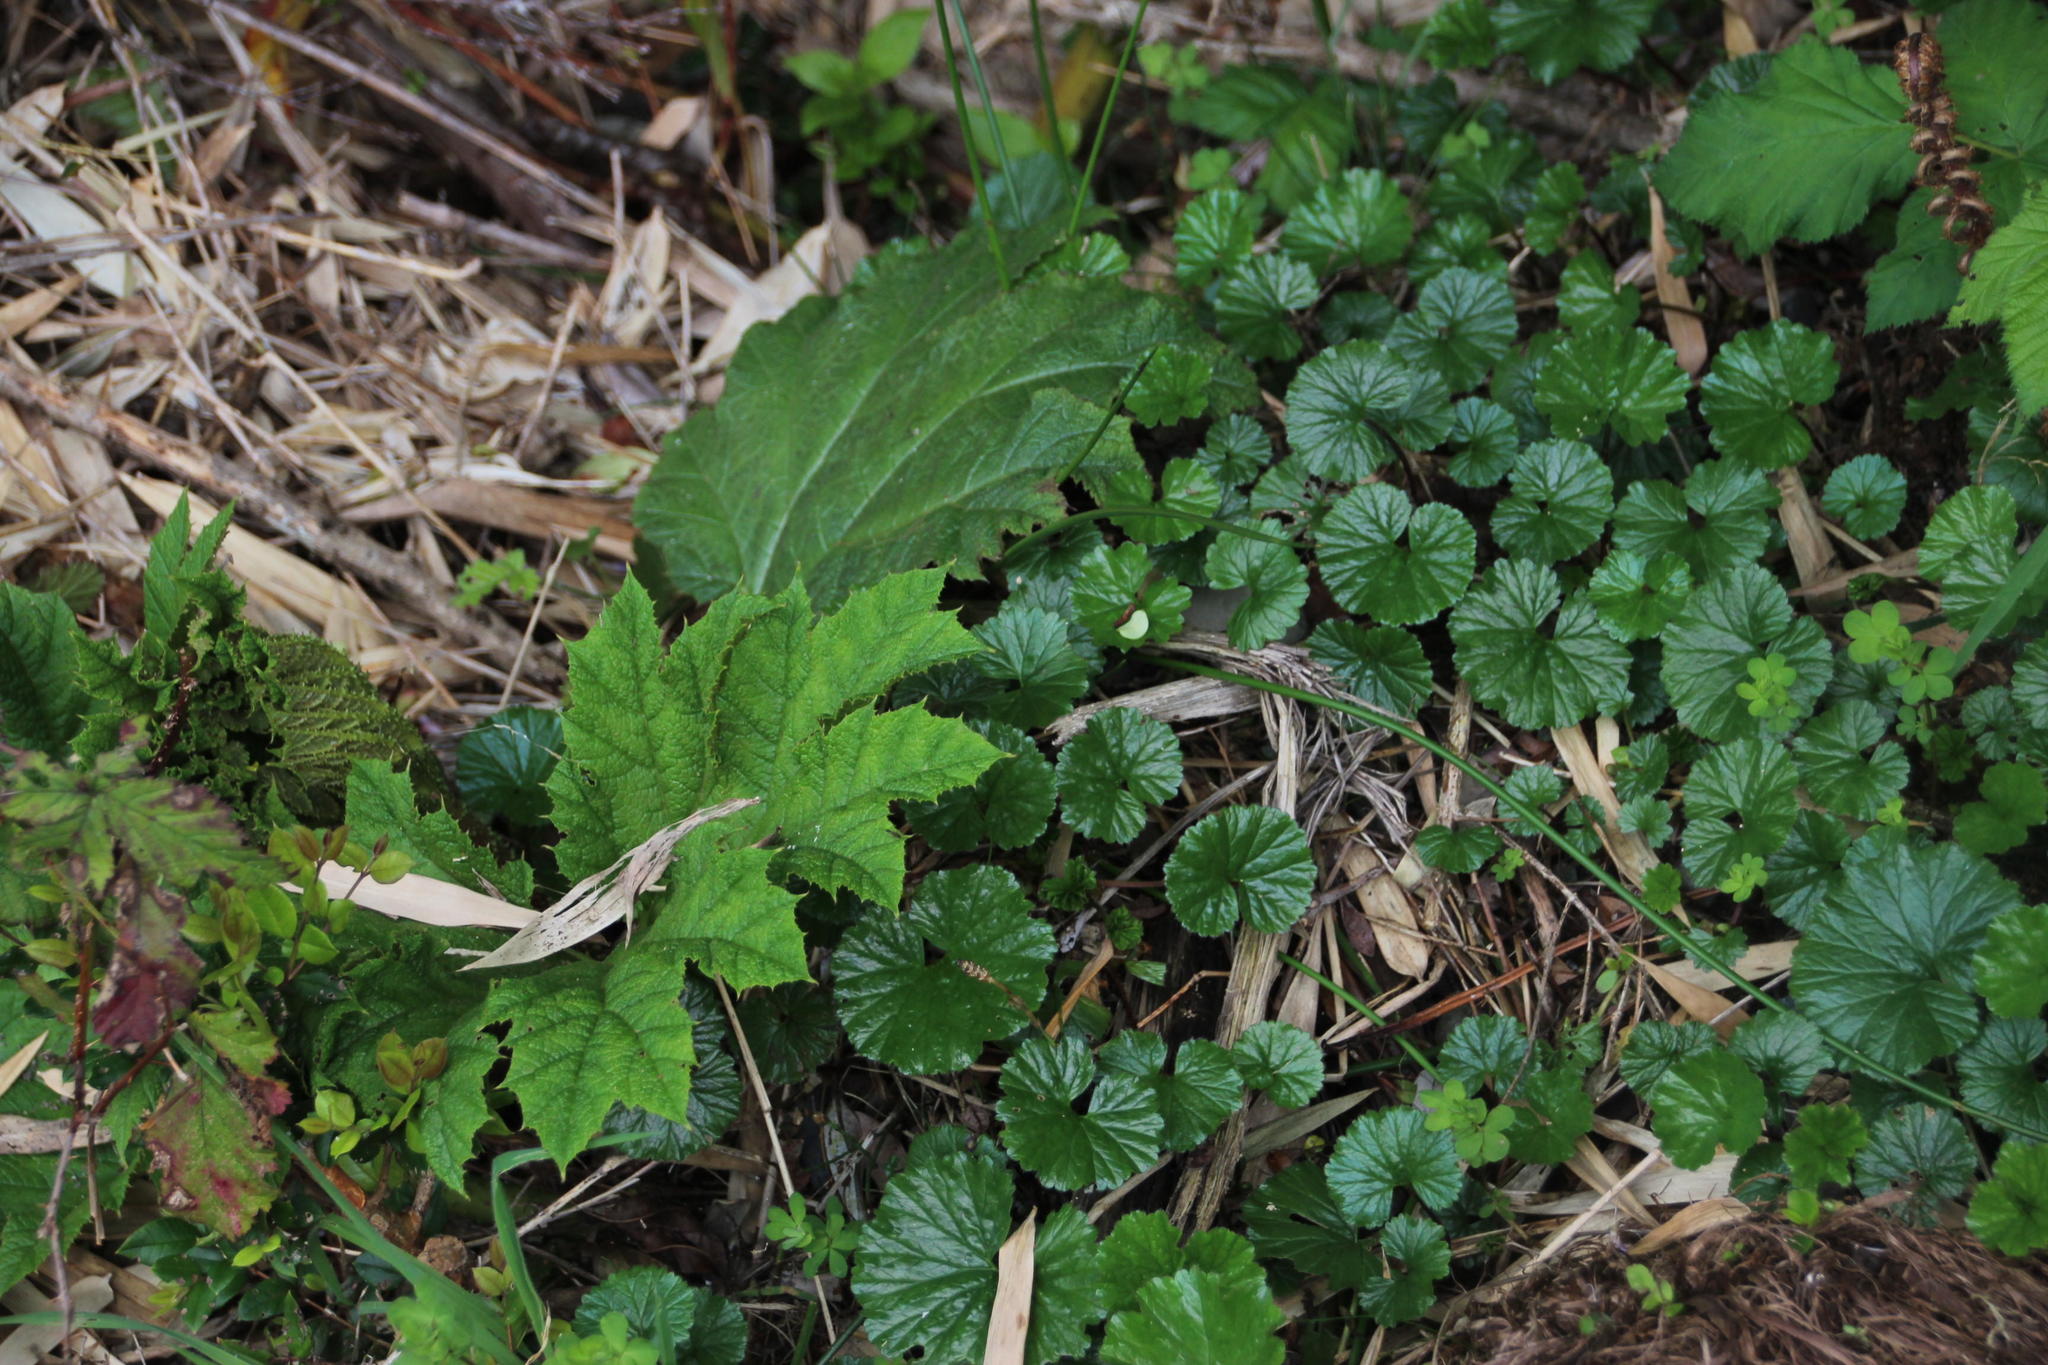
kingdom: Plantae
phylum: Tracheophyta
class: Magnoliopsida
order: Gunnerales
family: Gunneraceae
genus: Gunnera
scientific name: Gunnera magellanica
